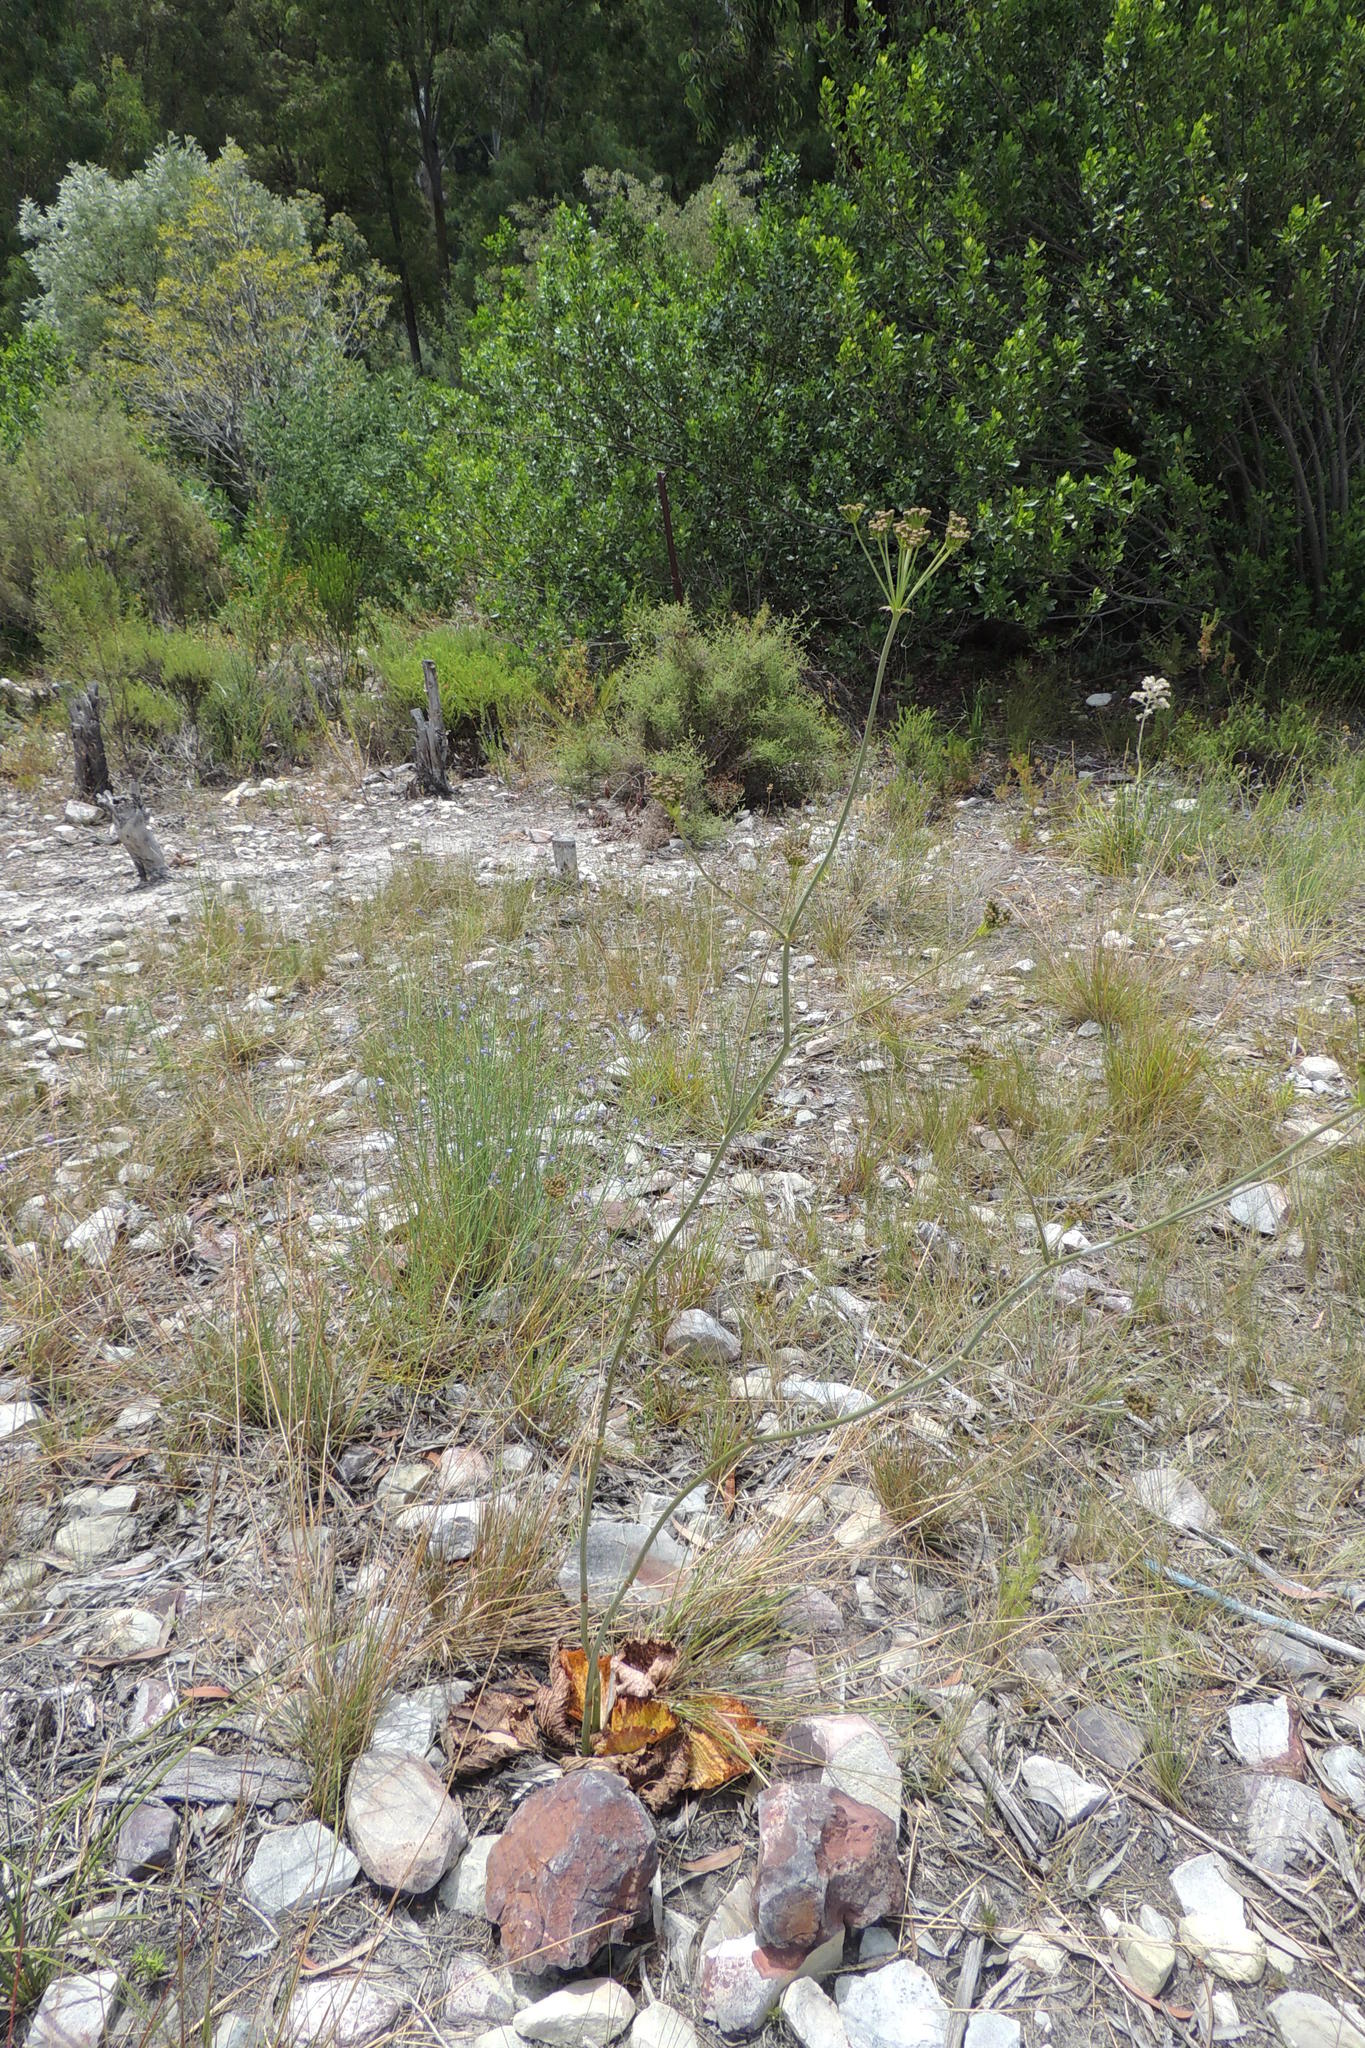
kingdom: Plantae
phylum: Tracheophyta
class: Magnoliopsida
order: Apiales
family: Apiaceae
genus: Lichtensteinia
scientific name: Lichtensteinia latifolia
